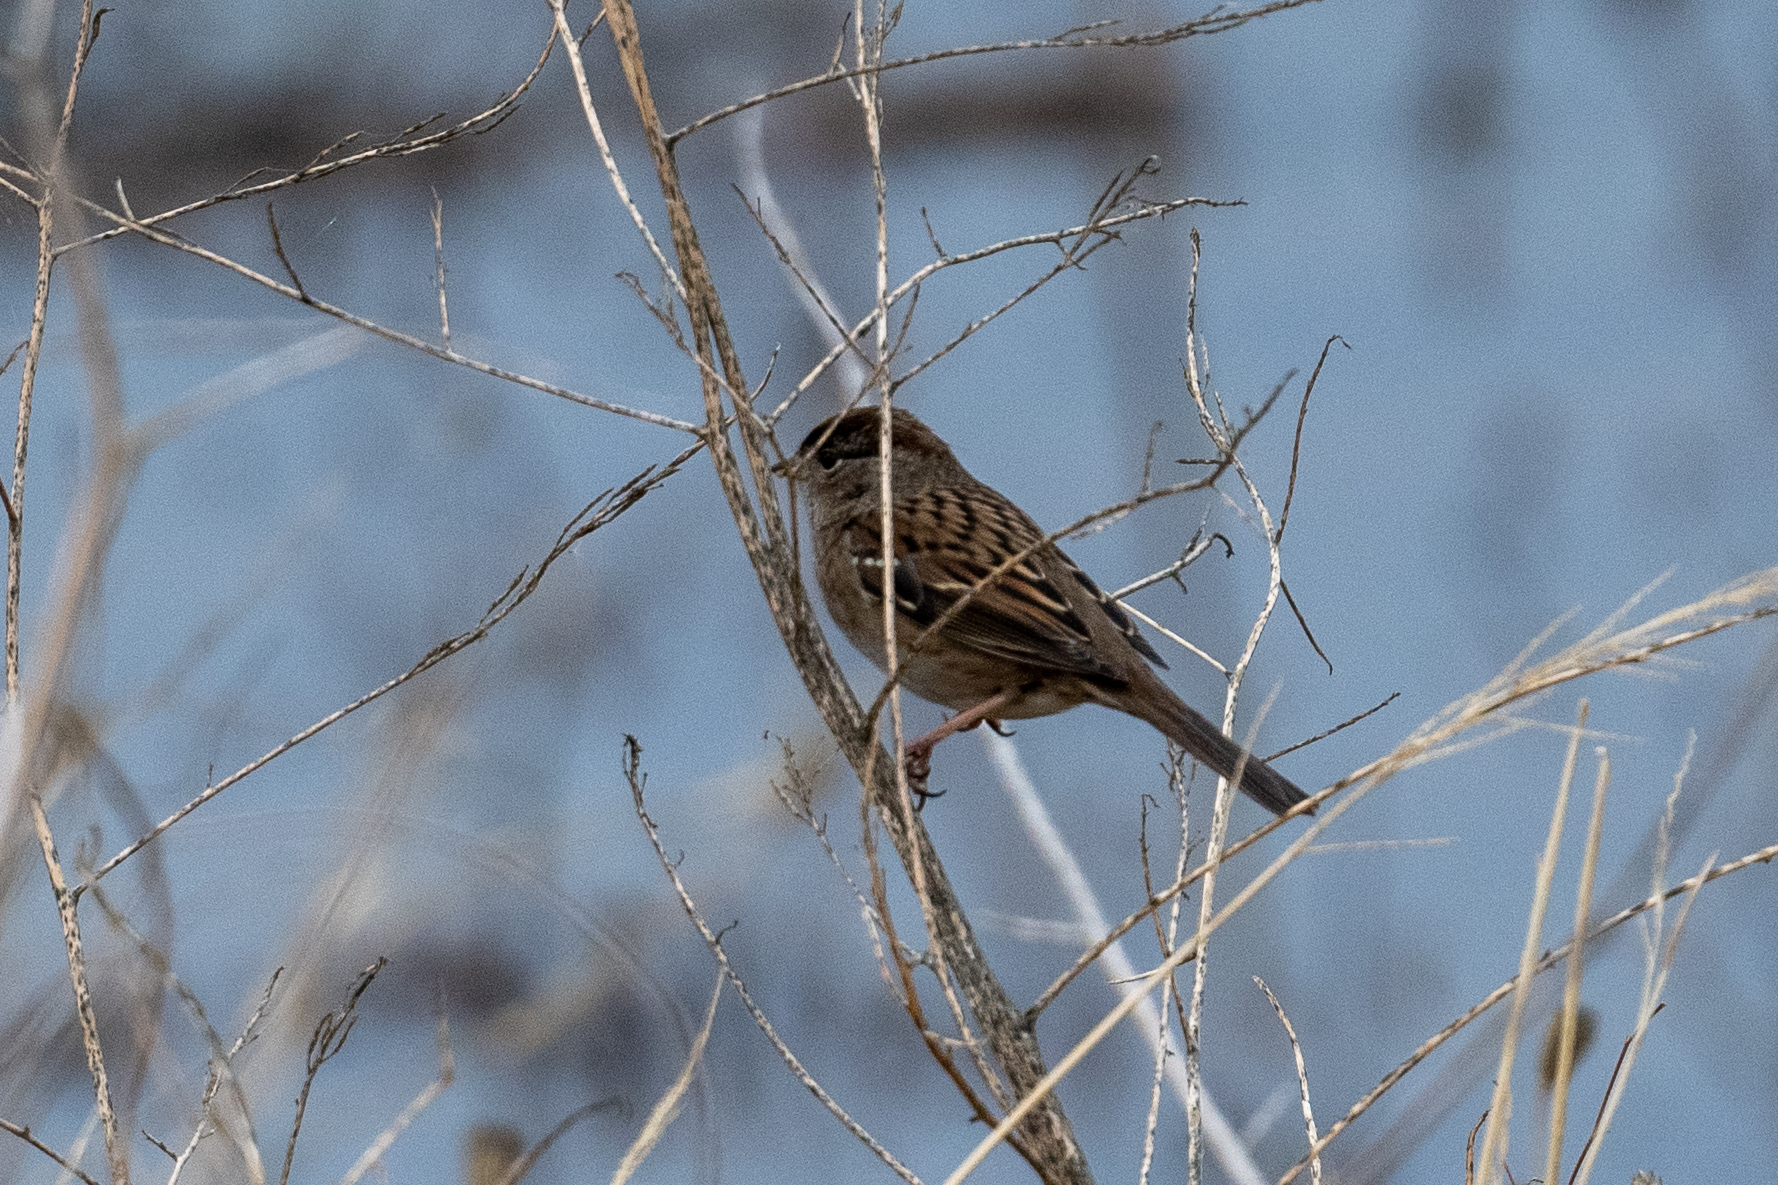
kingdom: Animalia
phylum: Chordata
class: Aves
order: Passeriformes
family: Passerellidae
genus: Zonotrichia
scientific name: Zonotrichia atricapilla
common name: Golden-crowned sparrow
